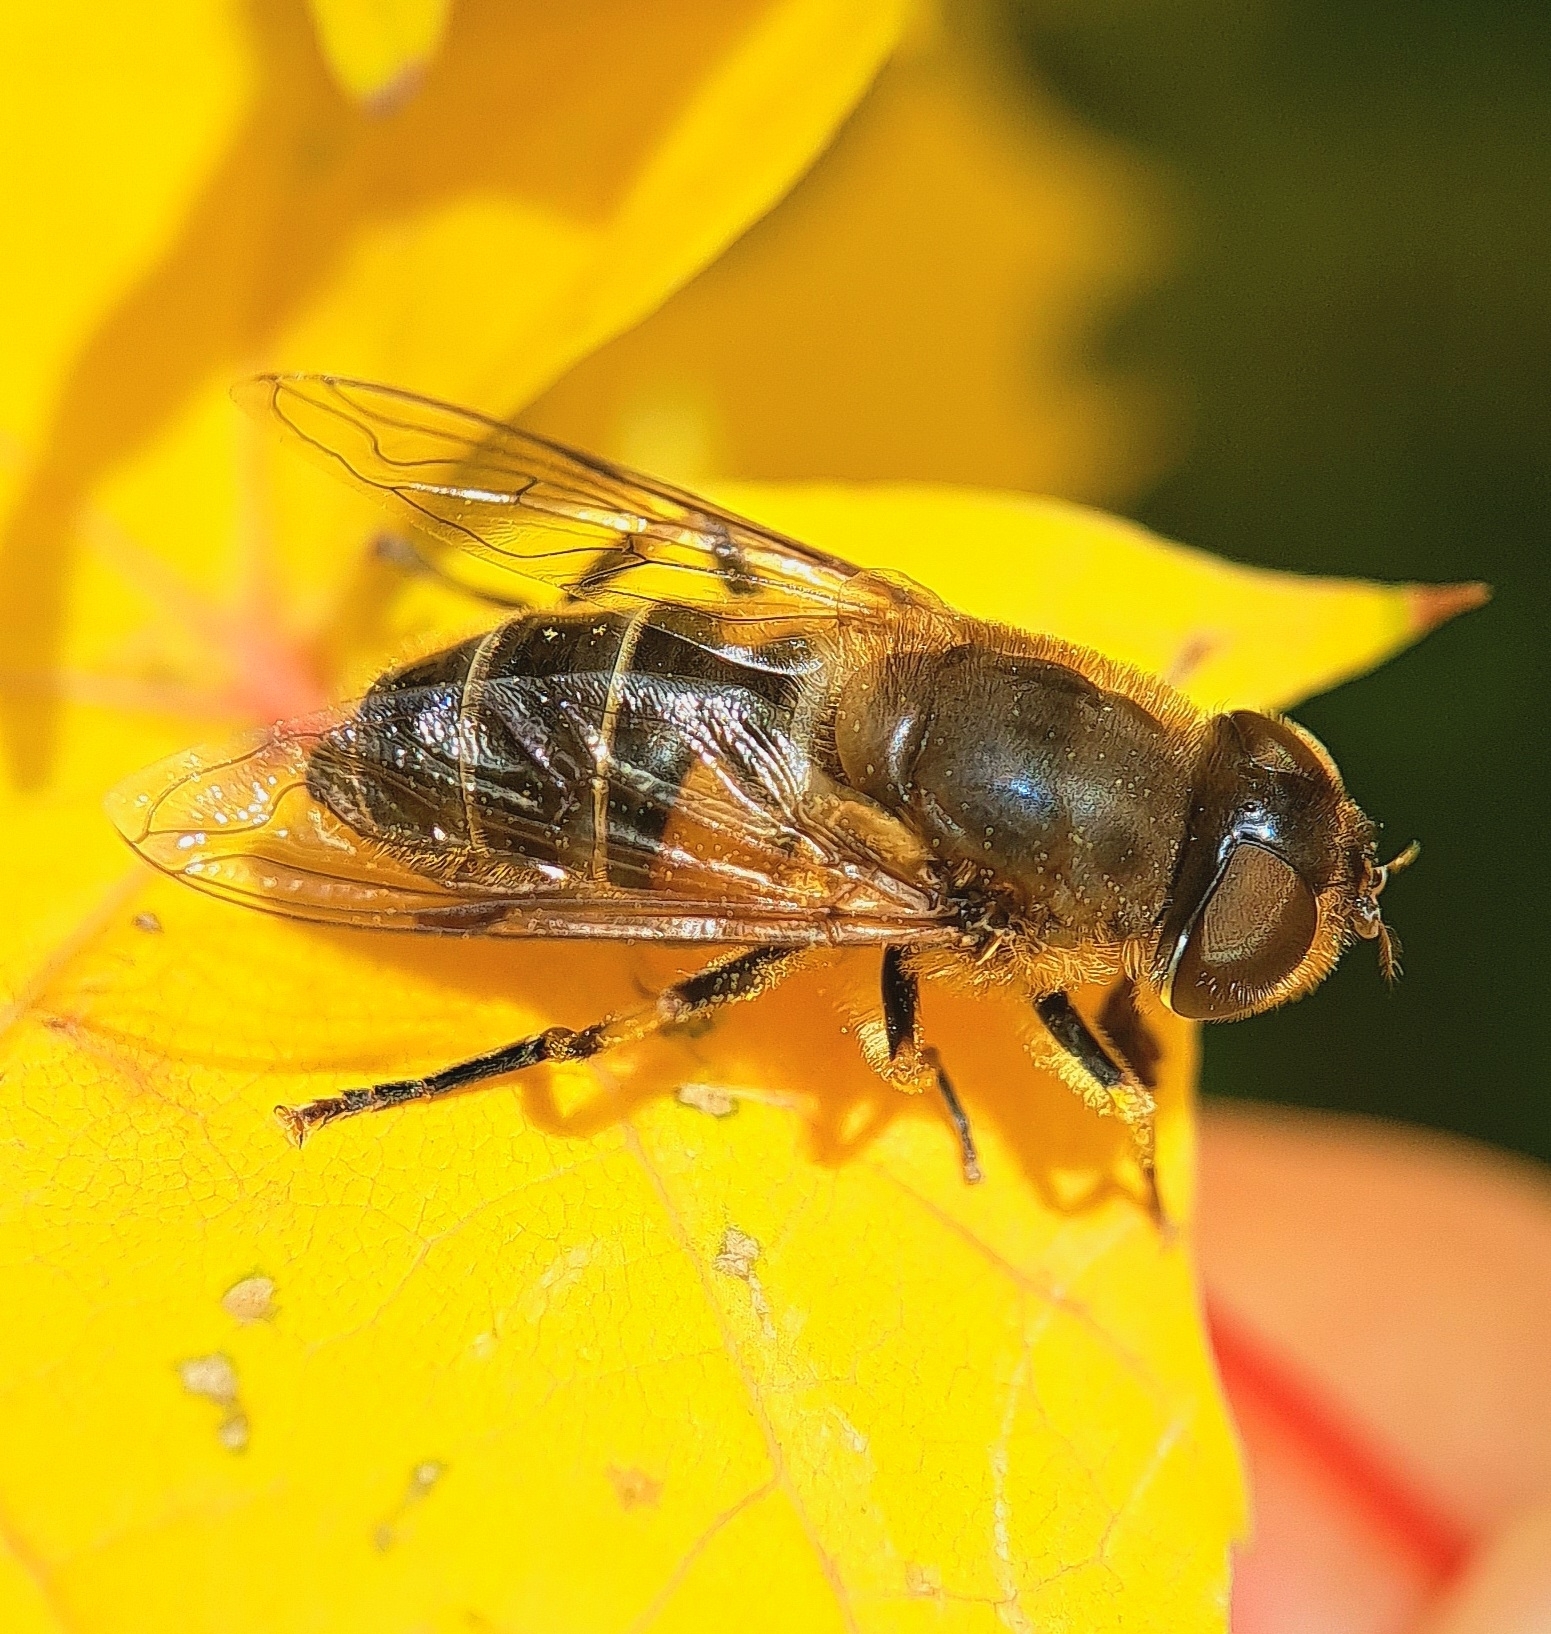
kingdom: Animalia
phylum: Arthropoda
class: Insecta
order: Diptera
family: Syrphidae
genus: Eristalis
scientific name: Eristalis pertinax
